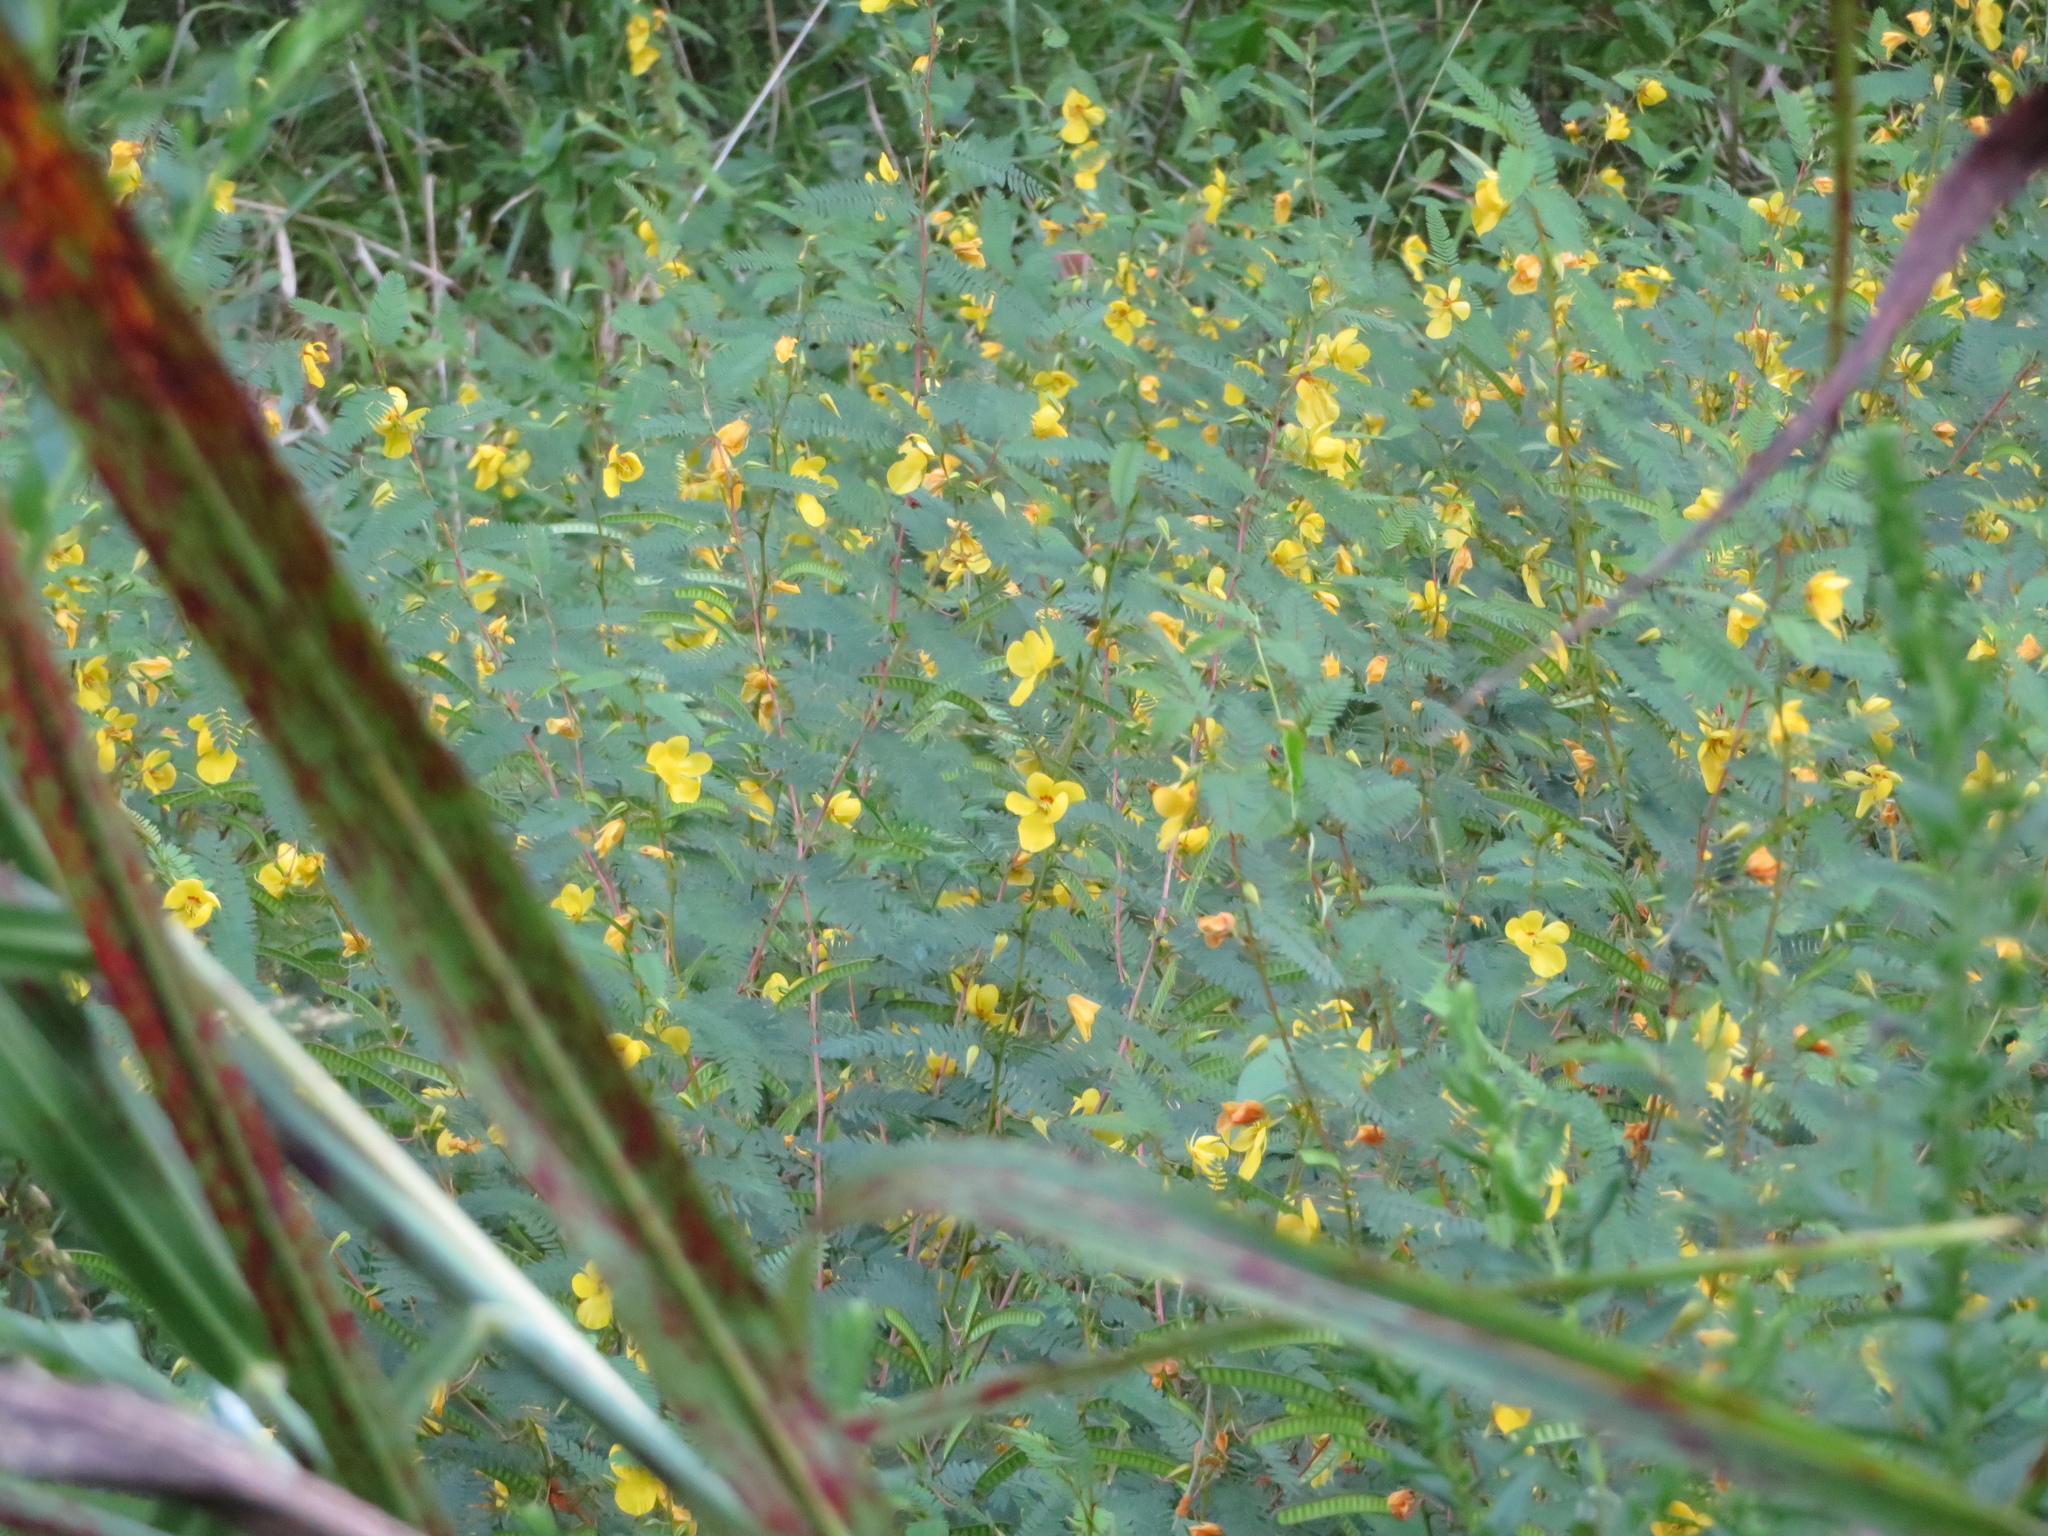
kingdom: Plantae
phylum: Tracheophyta
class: Magnoliopsida
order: Fabales
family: Fabaceae
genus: Chamaecrista
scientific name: Chamaecrista fasciculata
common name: Golden cassia
